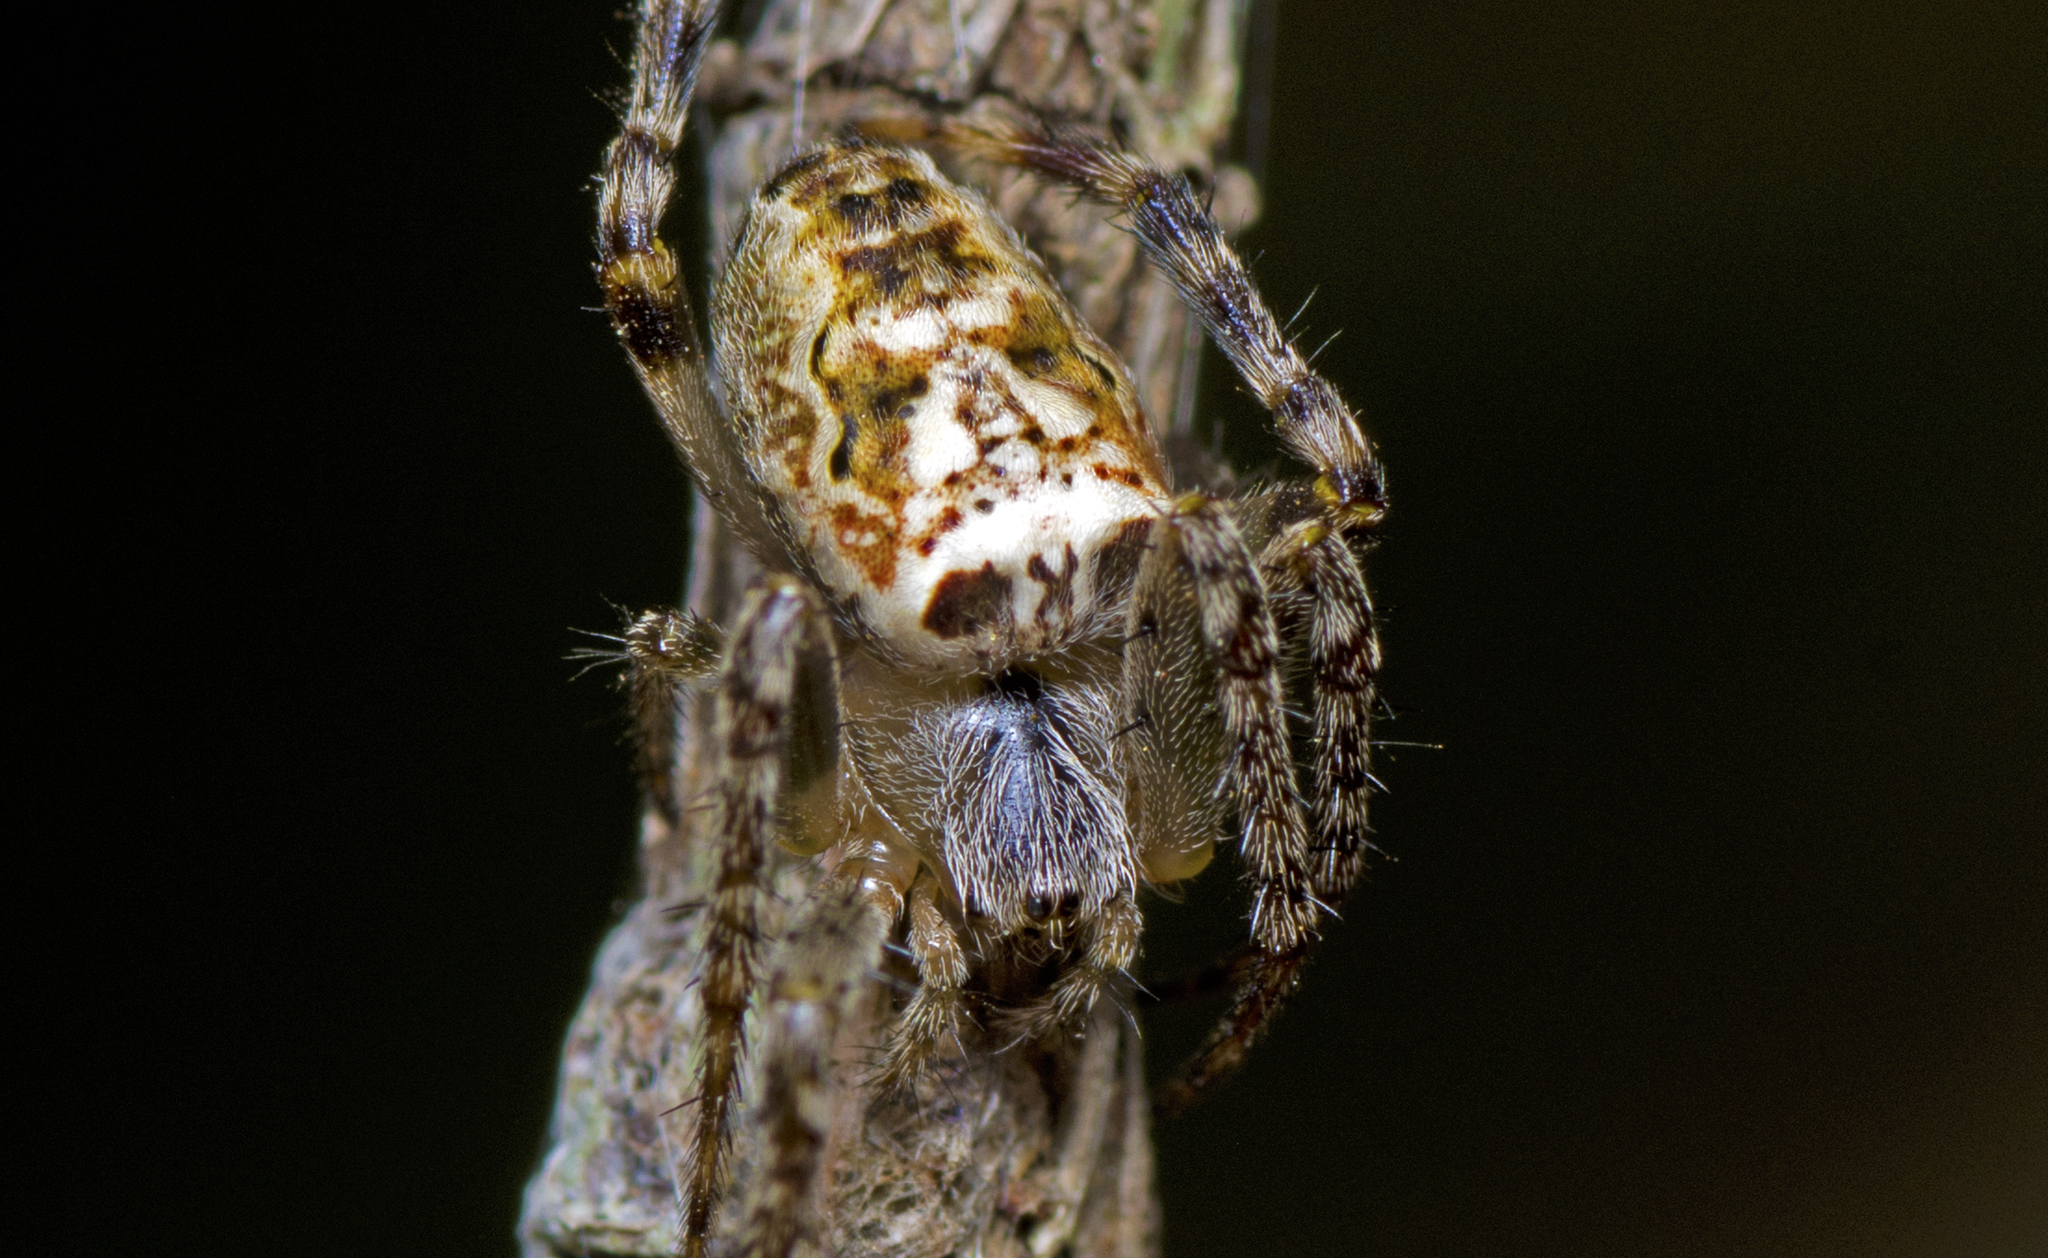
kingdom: Animalia
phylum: Arthropoda
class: Arachnida
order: Araneae
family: Araneidae
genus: Plebs
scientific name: Plebs eburnus
